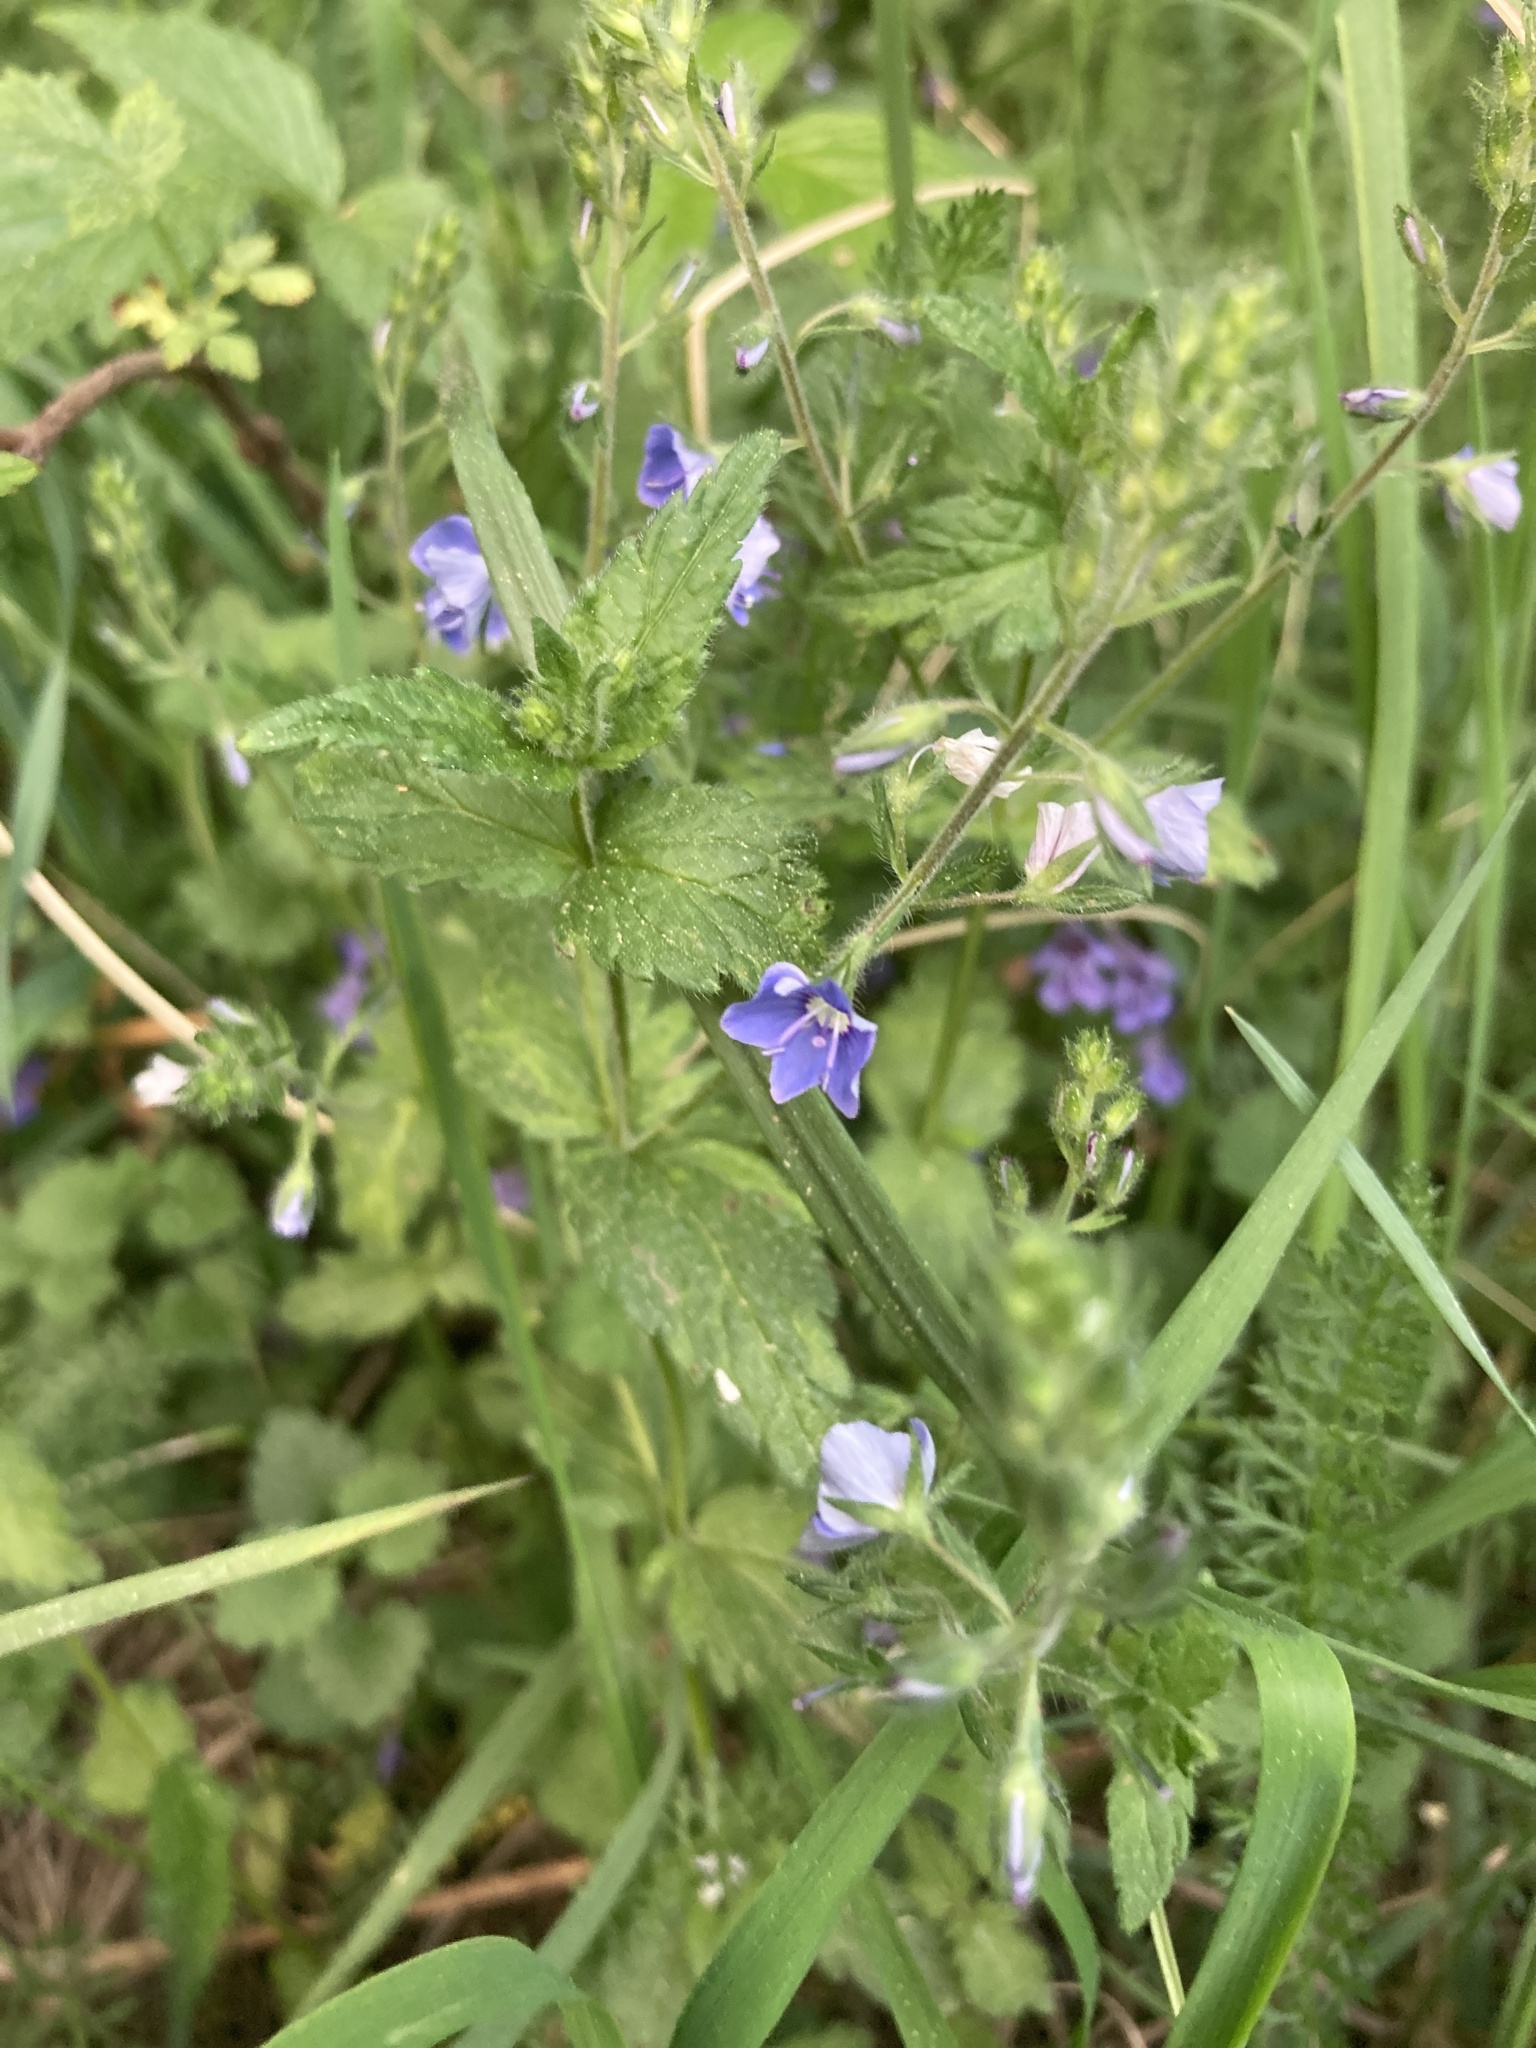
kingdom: Plantae
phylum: Tracheophyta
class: Magnoliopsida
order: Lamiales
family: Plantaginaceae
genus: Veronica
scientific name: Veronica chamaedrys
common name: Germander speedwell
